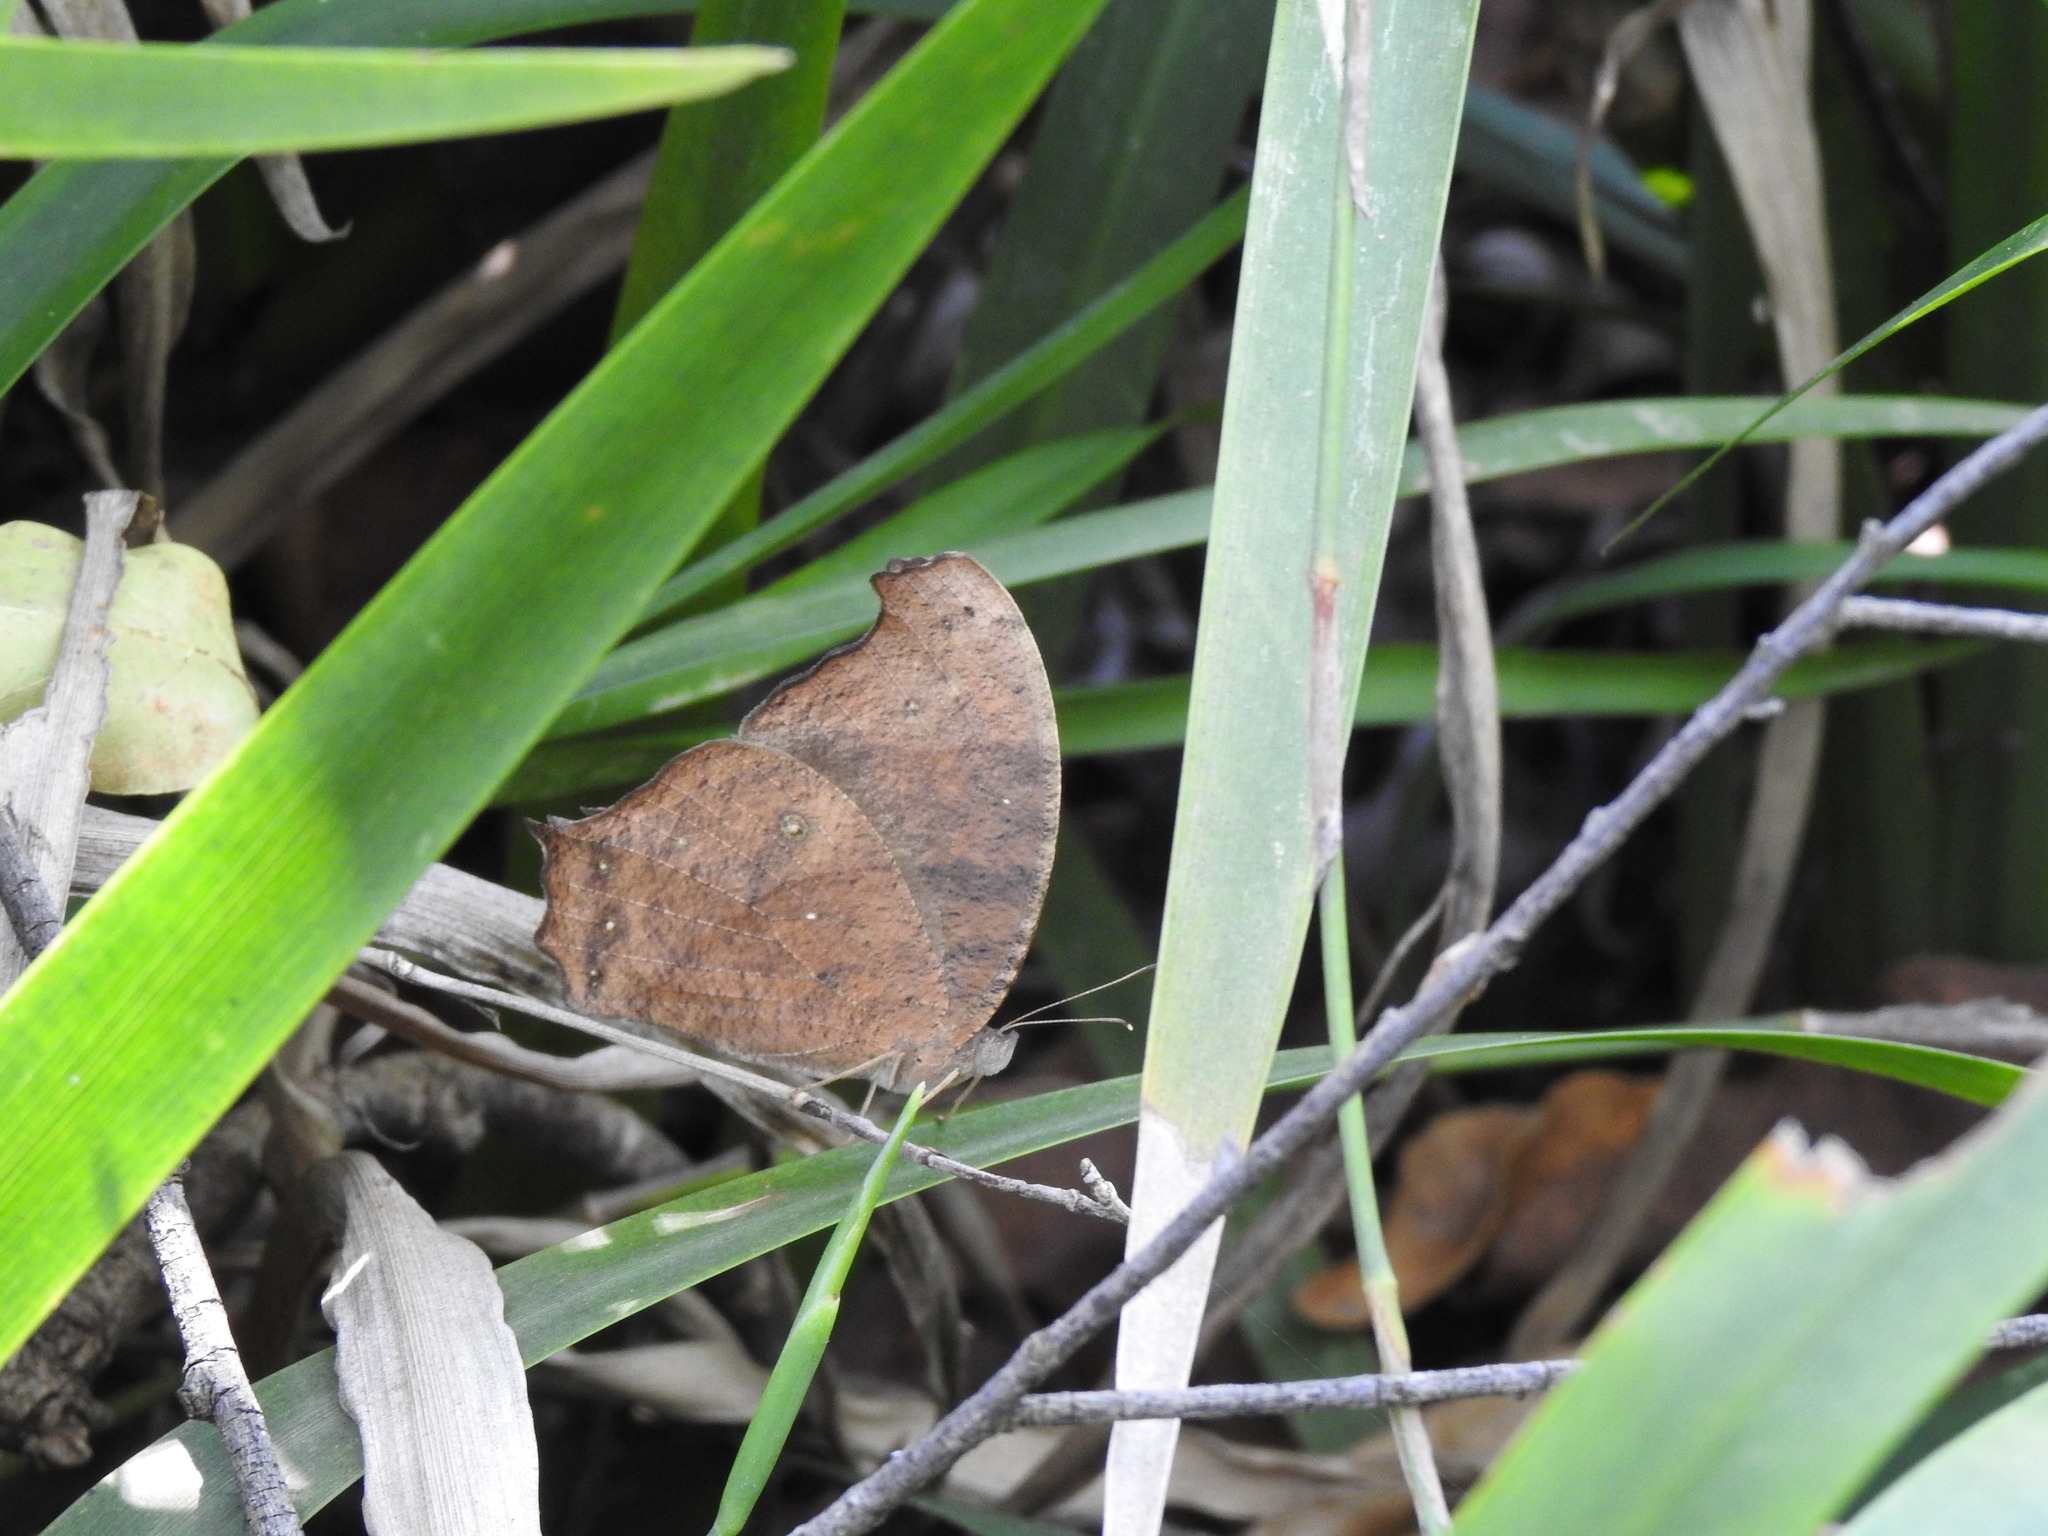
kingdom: Animalia
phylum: Arthropoda
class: Insecta
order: Lepidoptera
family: Nymphalidae
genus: Melanitis
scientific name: Melanitis leda
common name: Twilight brown
